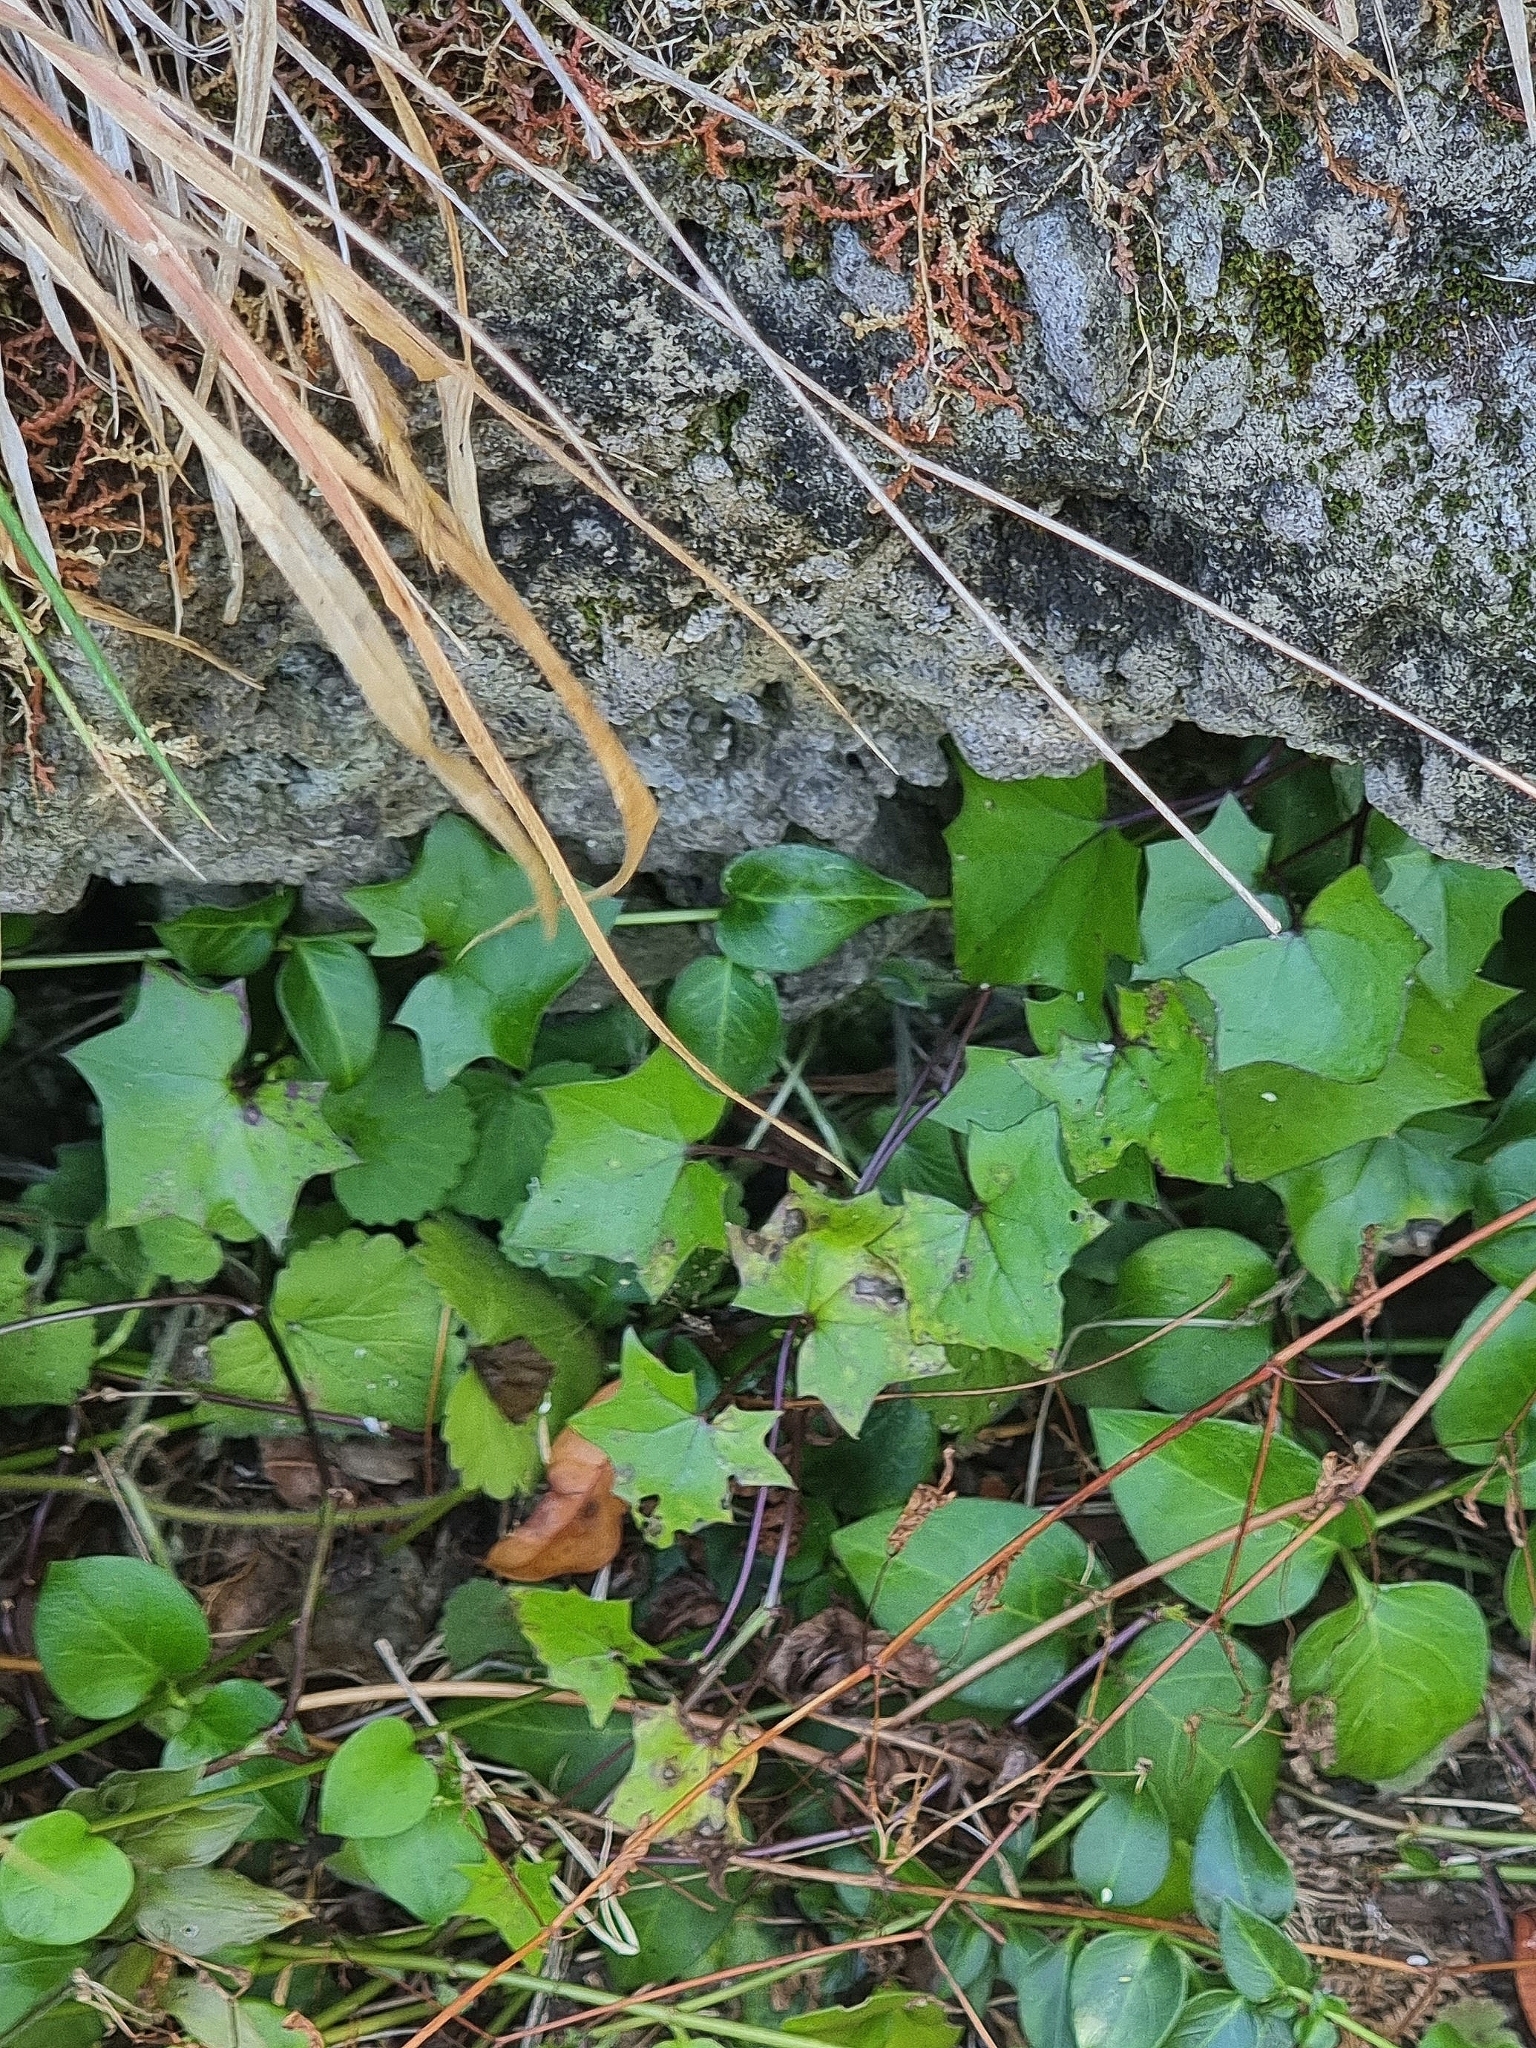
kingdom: Plantae
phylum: Tracheophyta
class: Magnoliopsida
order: Asterales
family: Asteraceae
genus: Delairea
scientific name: Delairea odorata
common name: Cape-ivy
